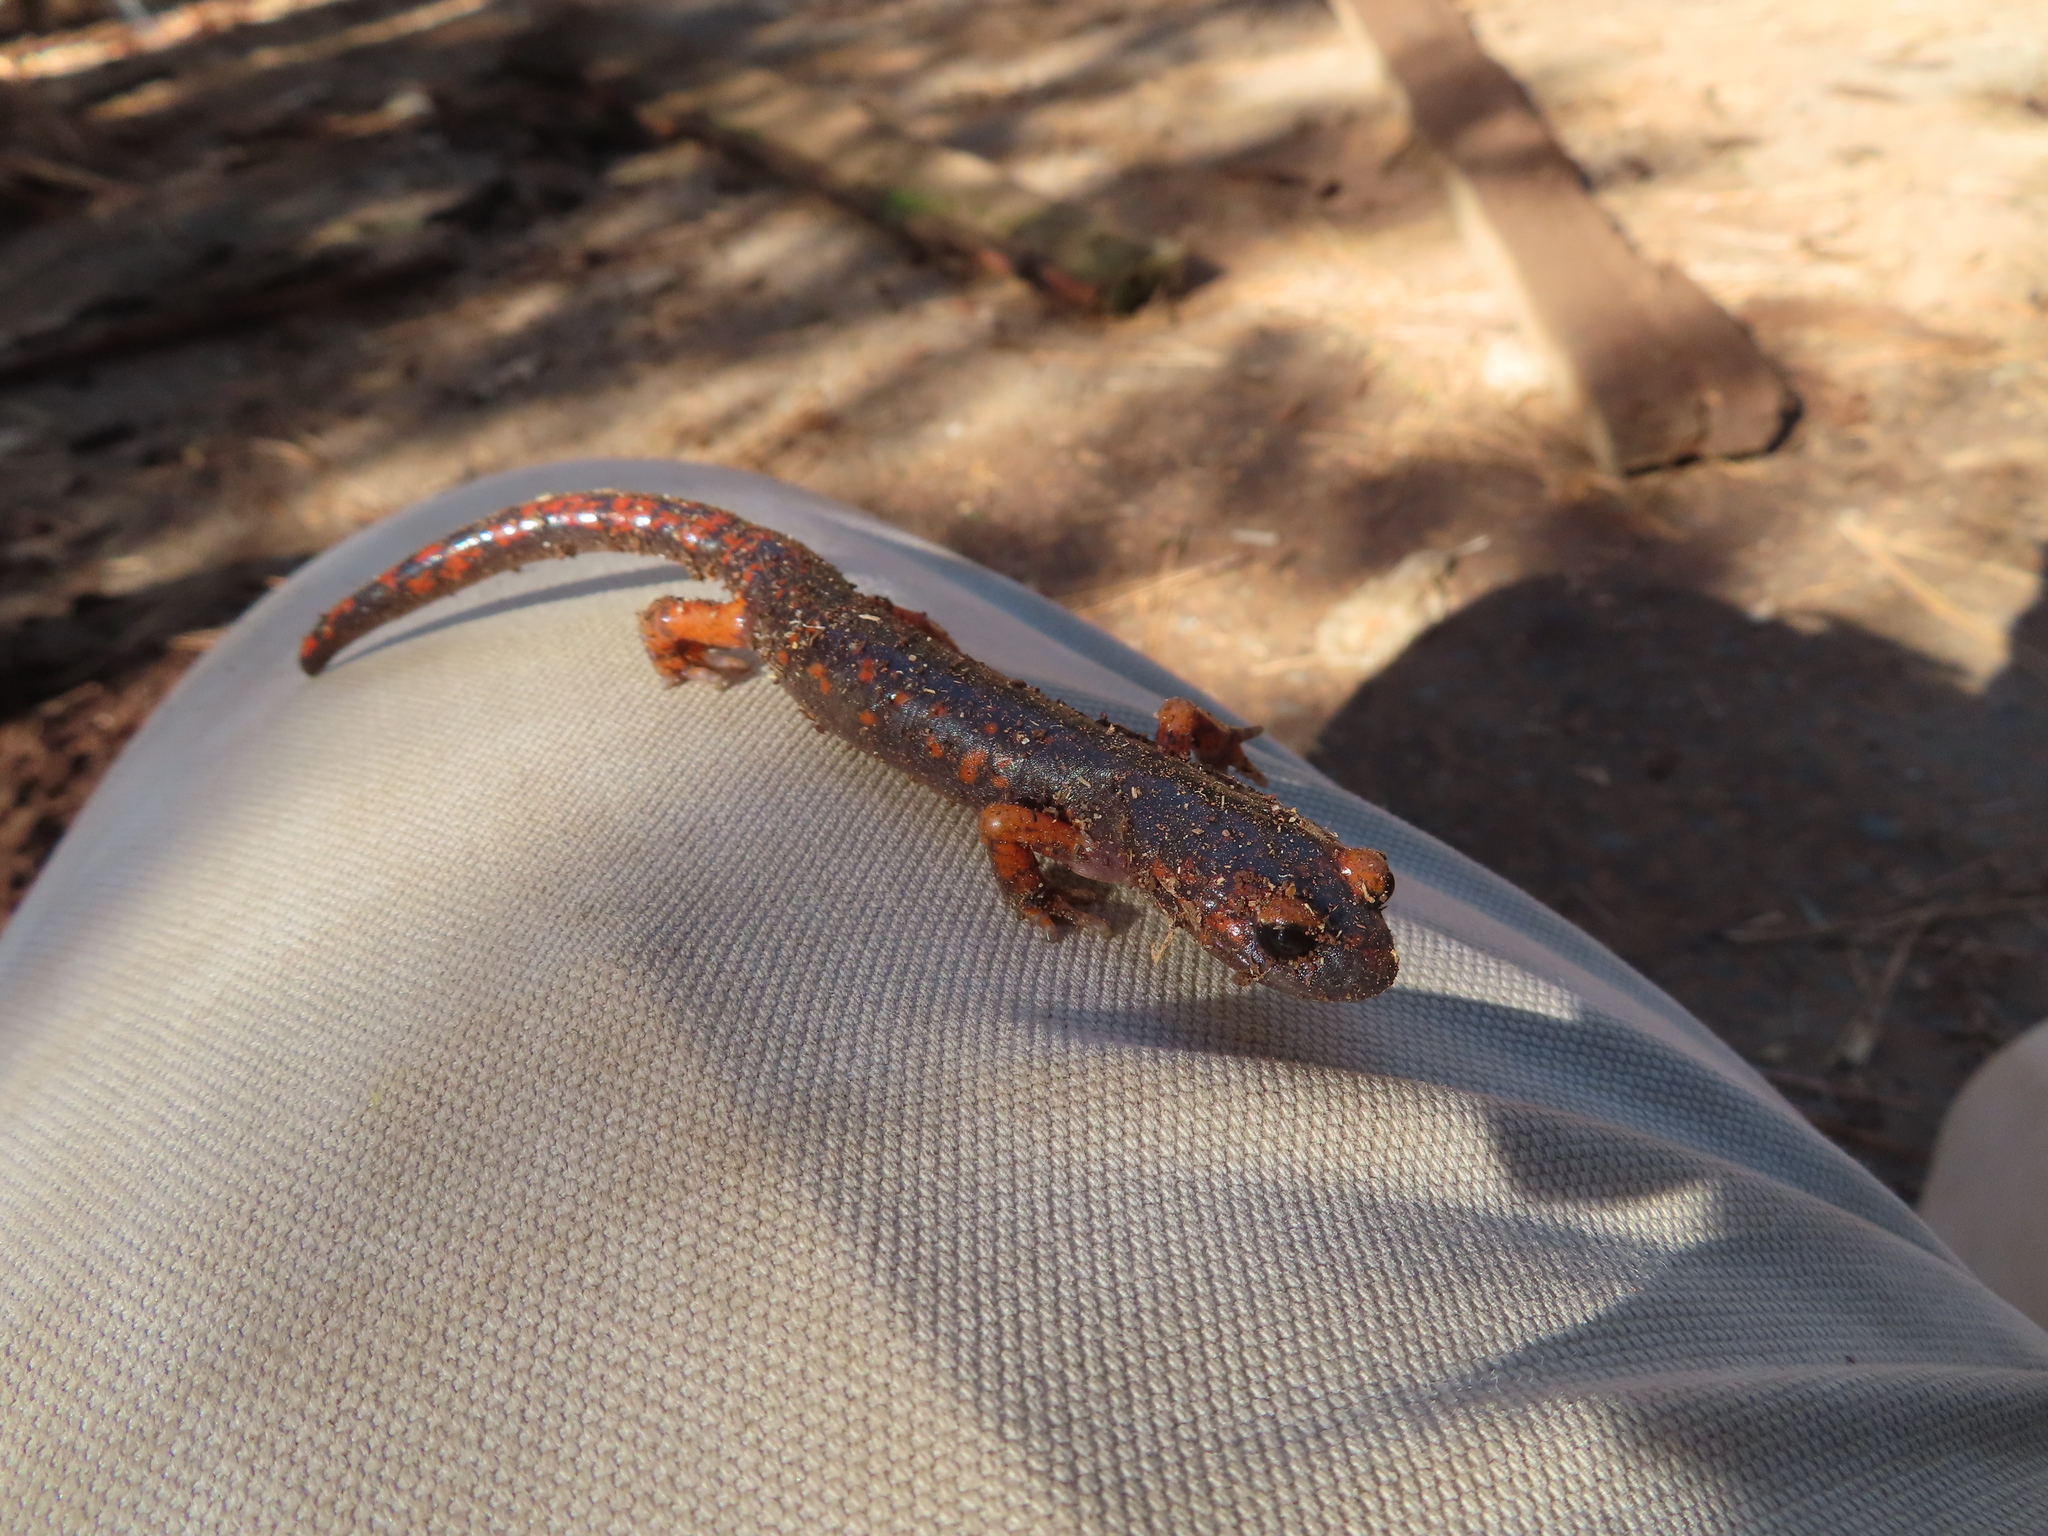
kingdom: Animalia
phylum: Chordata
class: Amphibia
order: Caudata
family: Plethodontidae
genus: Ensatina
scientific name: Ensatina eschscholtzii
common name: Ensatina
